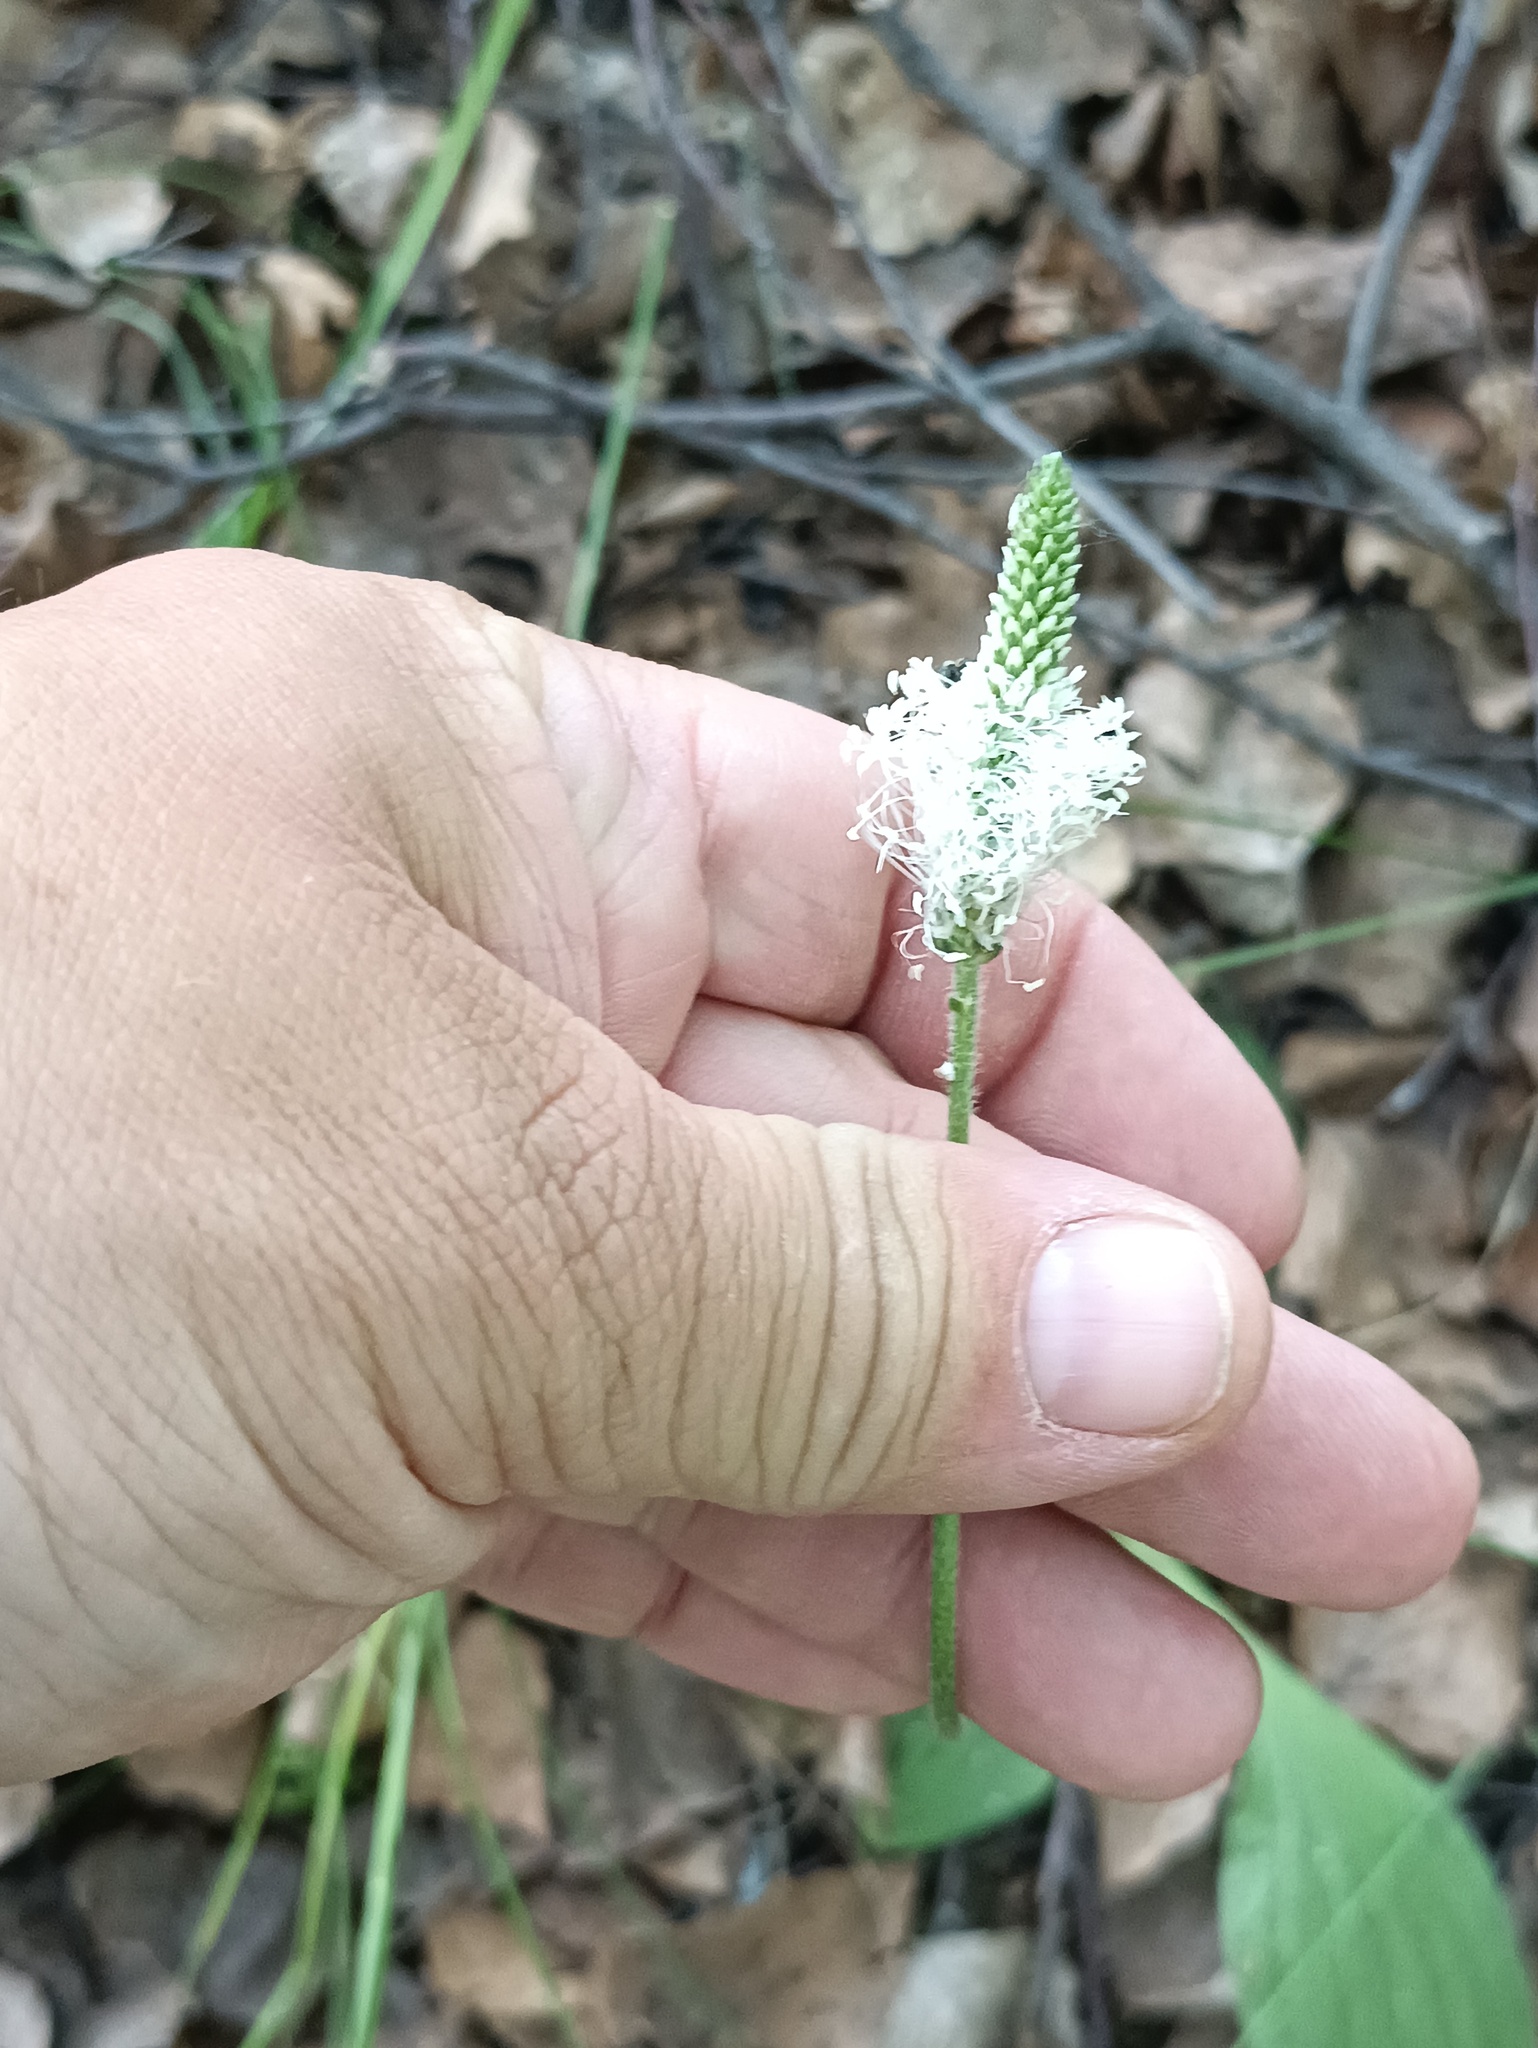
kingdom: Plantae
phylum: Tracheophyta
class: Magnoliopsida
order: Lamiales
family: Plantaginaceae
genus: Plantago
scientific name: Plantago media
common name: Hoary plantain
